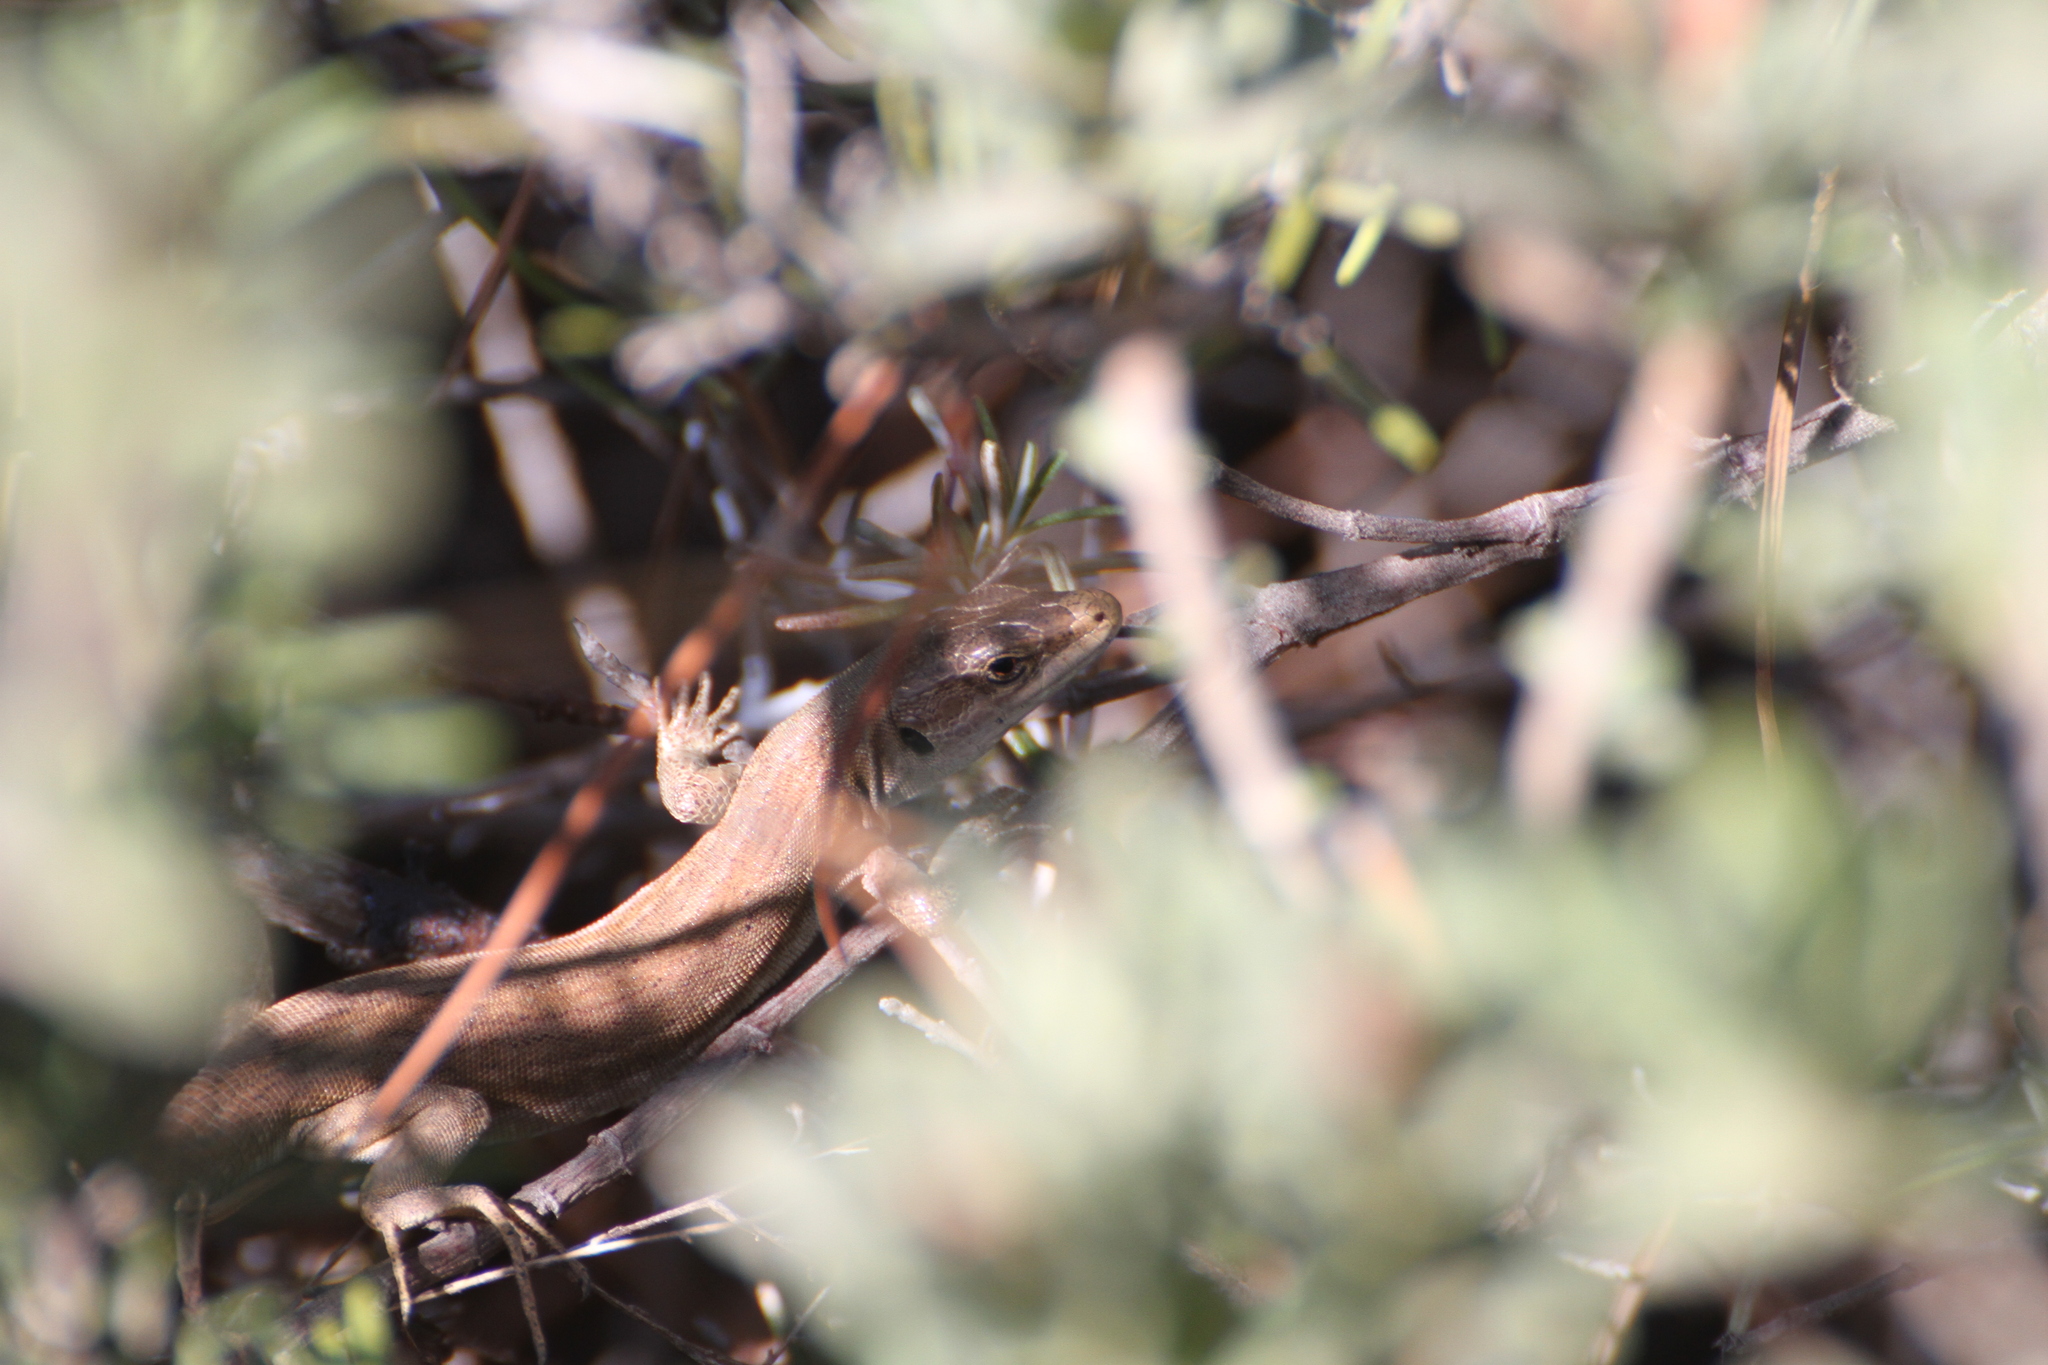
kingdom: Animalia
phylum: Chordata
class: Squamata
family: Lacertidae
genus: Podarcis
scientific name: Podarcis siculus
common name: Italian wall lizard
